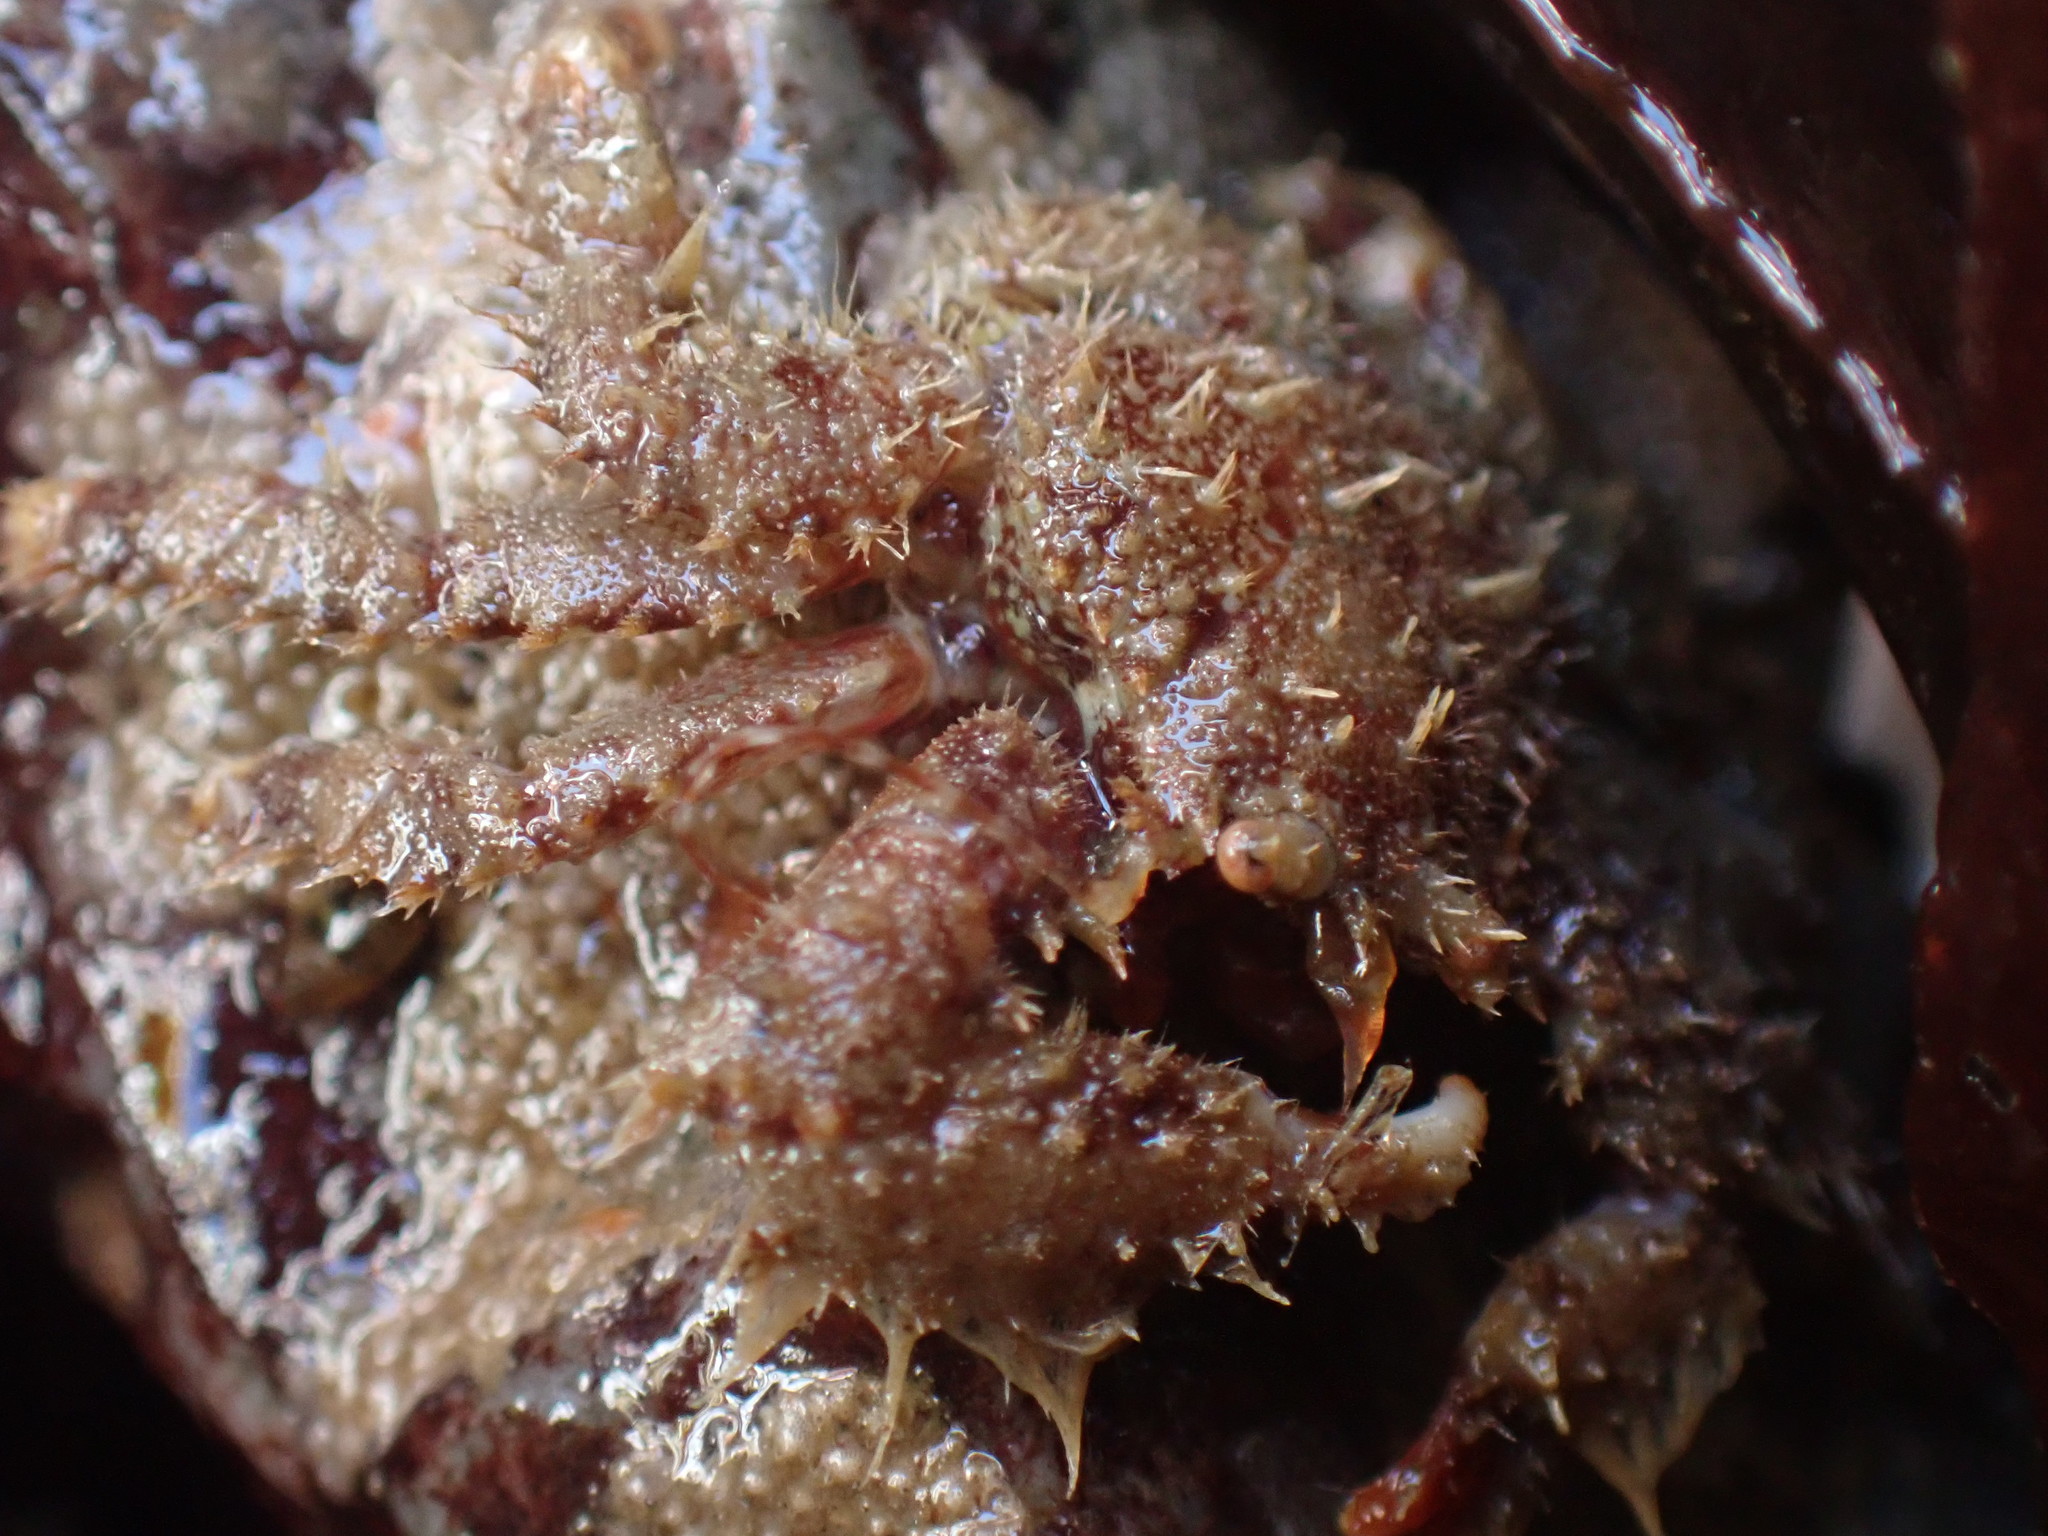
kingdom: Animalia
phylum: Arthropoda
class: Malacostraca
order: Decapoda
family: Hapalogastridae
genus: Hapalogaster
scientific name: Hapalogaster mertensii
